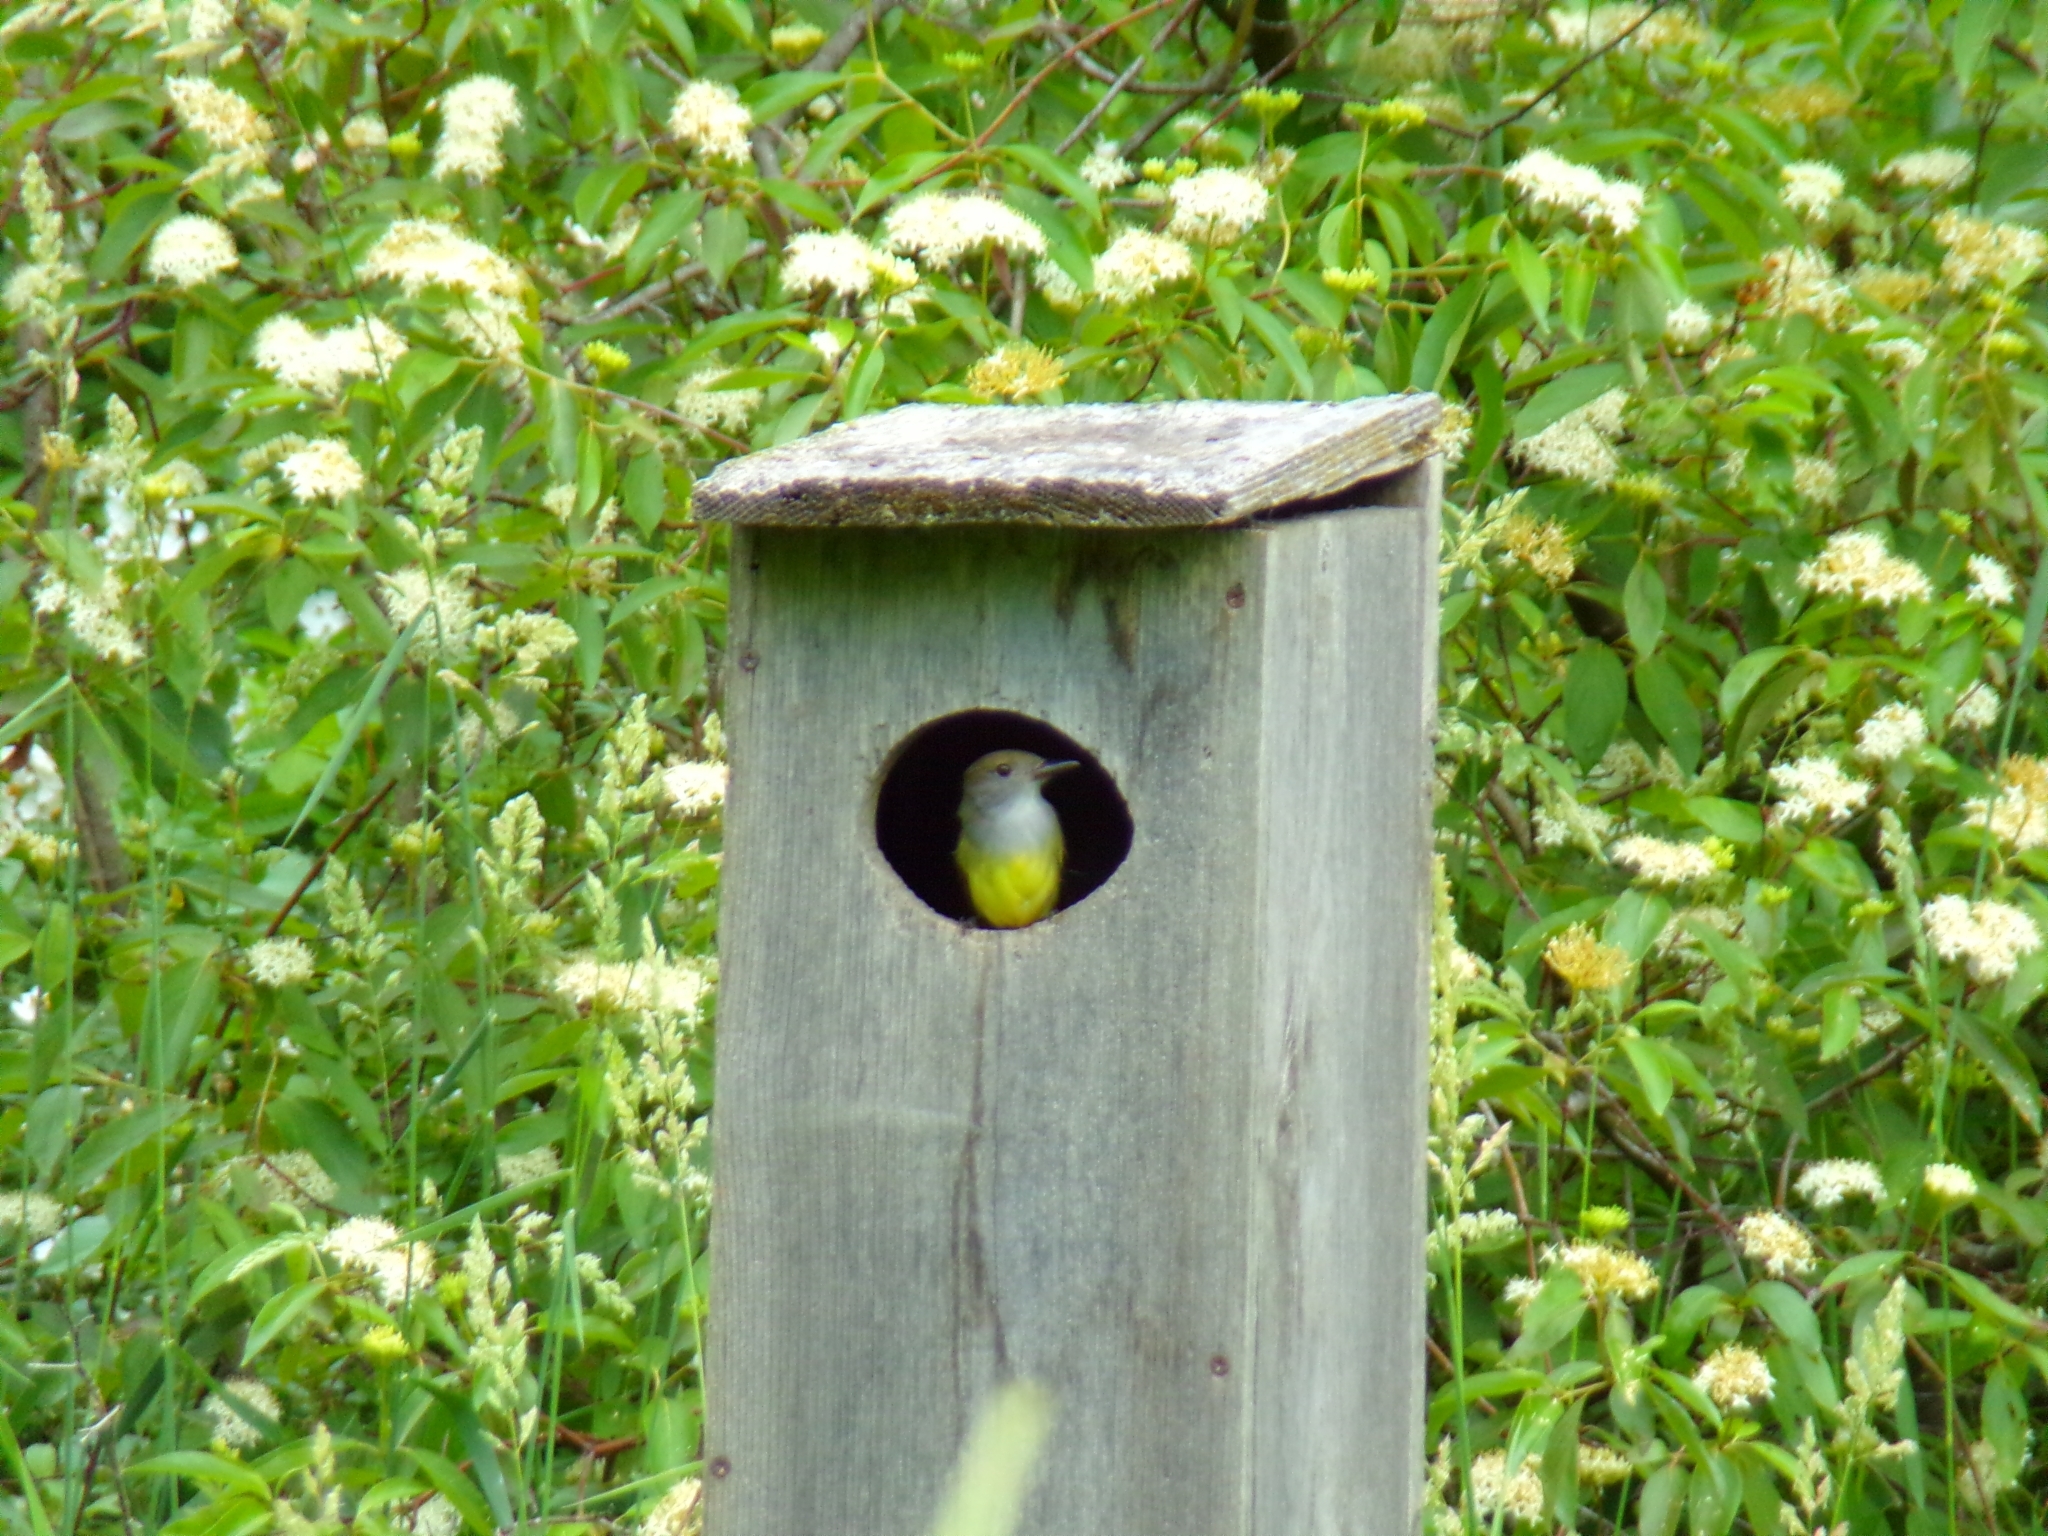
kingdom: Animalia
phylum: Chordata
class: Aves
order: Passeriformes
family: Tyrannidae
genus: Myiarchus
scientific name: Myiarchus crinitus
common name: Great crested flycatcher
